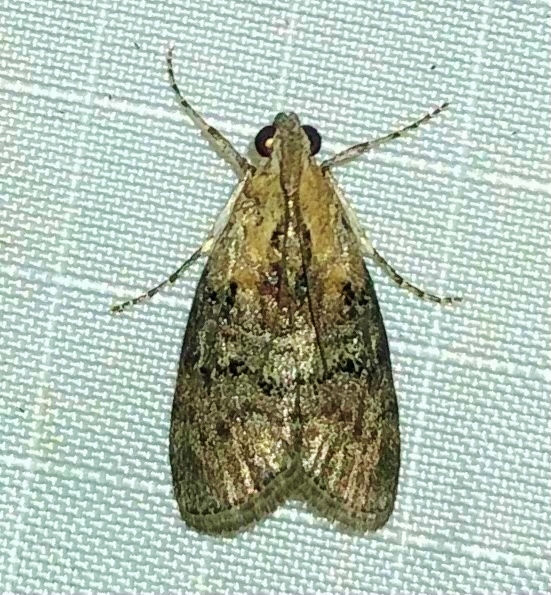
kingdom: Animalia
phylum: Arthropoda
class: Insecta
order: Lepidoptera
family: Pyralidae
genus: Pococera
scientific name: Pococera expandens
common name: Striped oak webworm moth
